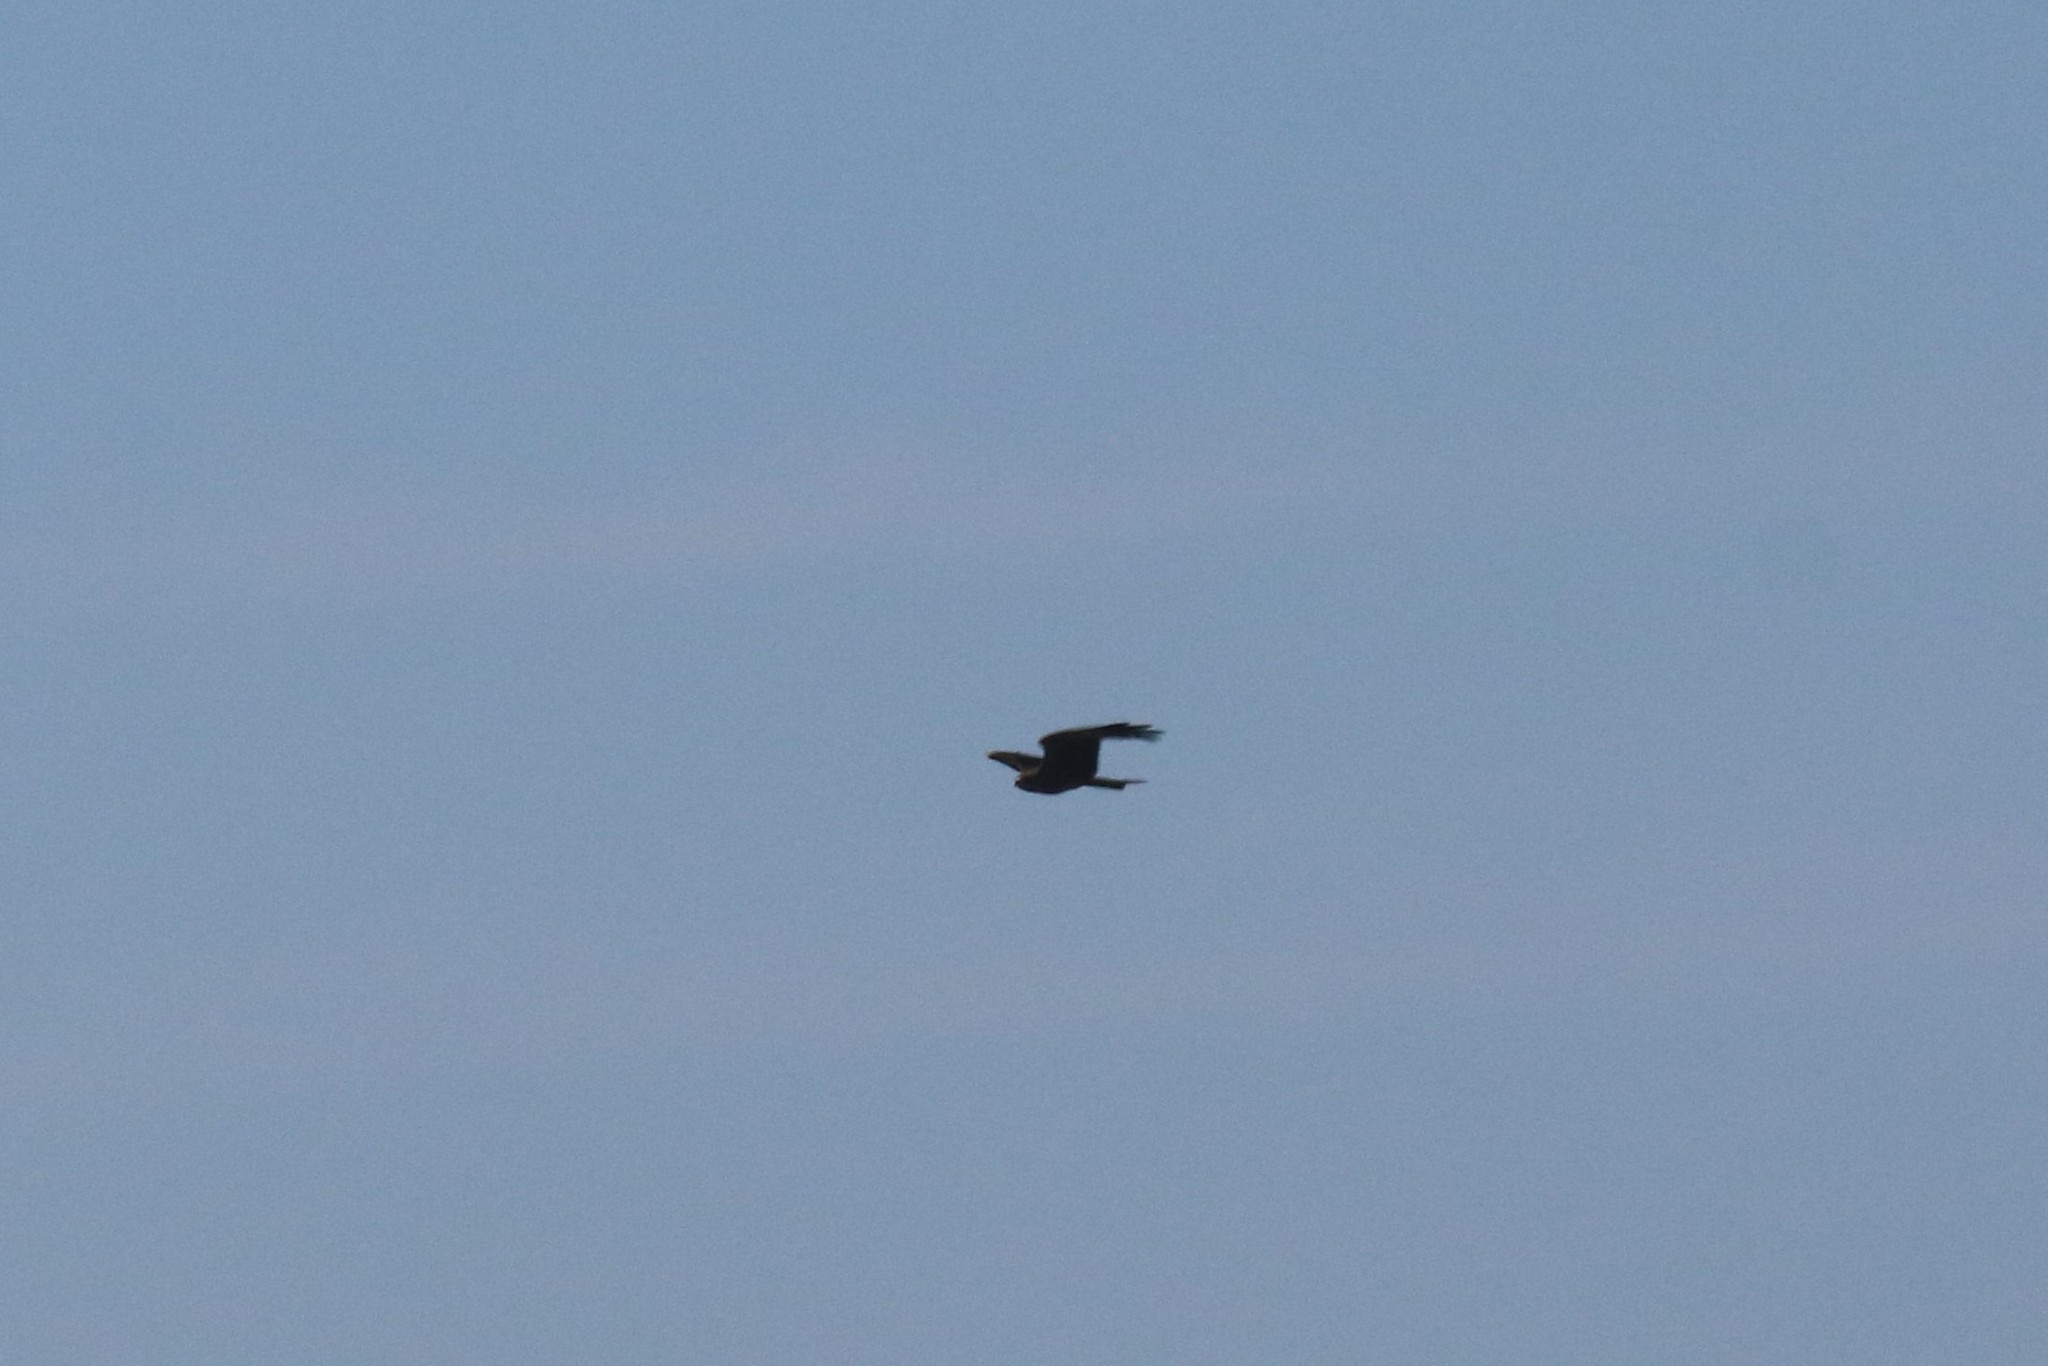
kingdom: Animalia
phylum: Chordata
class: Aves
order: Accipitriformes
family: Accipitridae
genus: Milvus
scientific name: Milvus migrans
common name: Black kite
